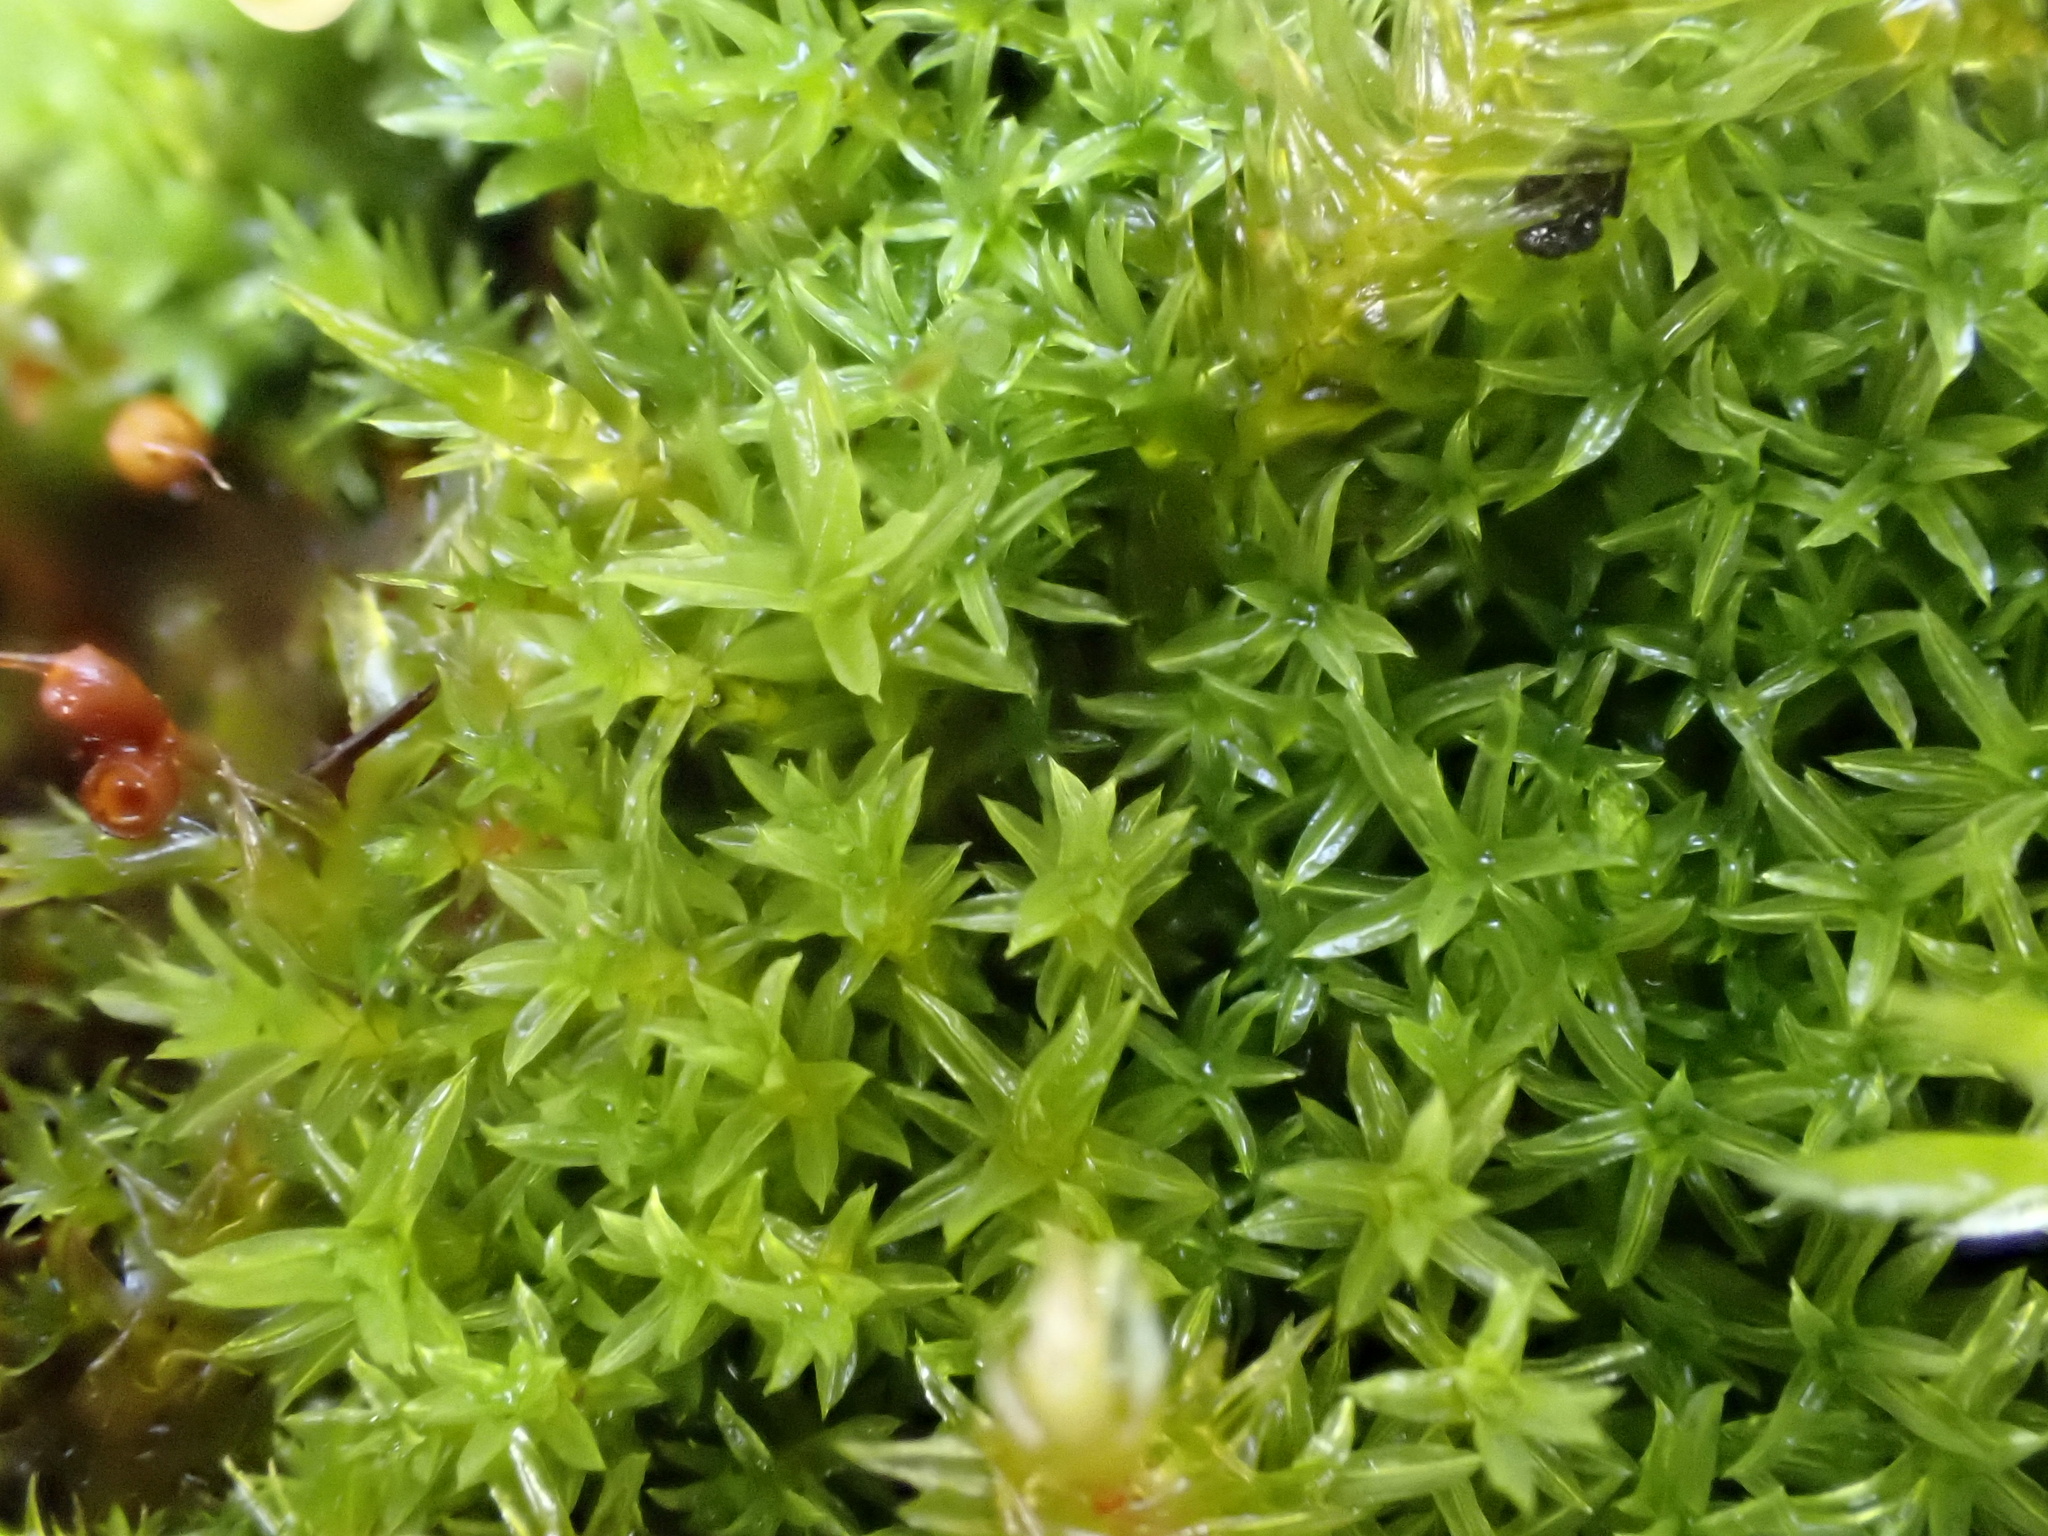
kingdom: Plantae
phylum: Bryophyta
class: Bryopsida
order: Pottiales
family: Pottiaceae
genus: Barbula
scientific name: Barbula unguiculata
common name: Prickly beard moss
